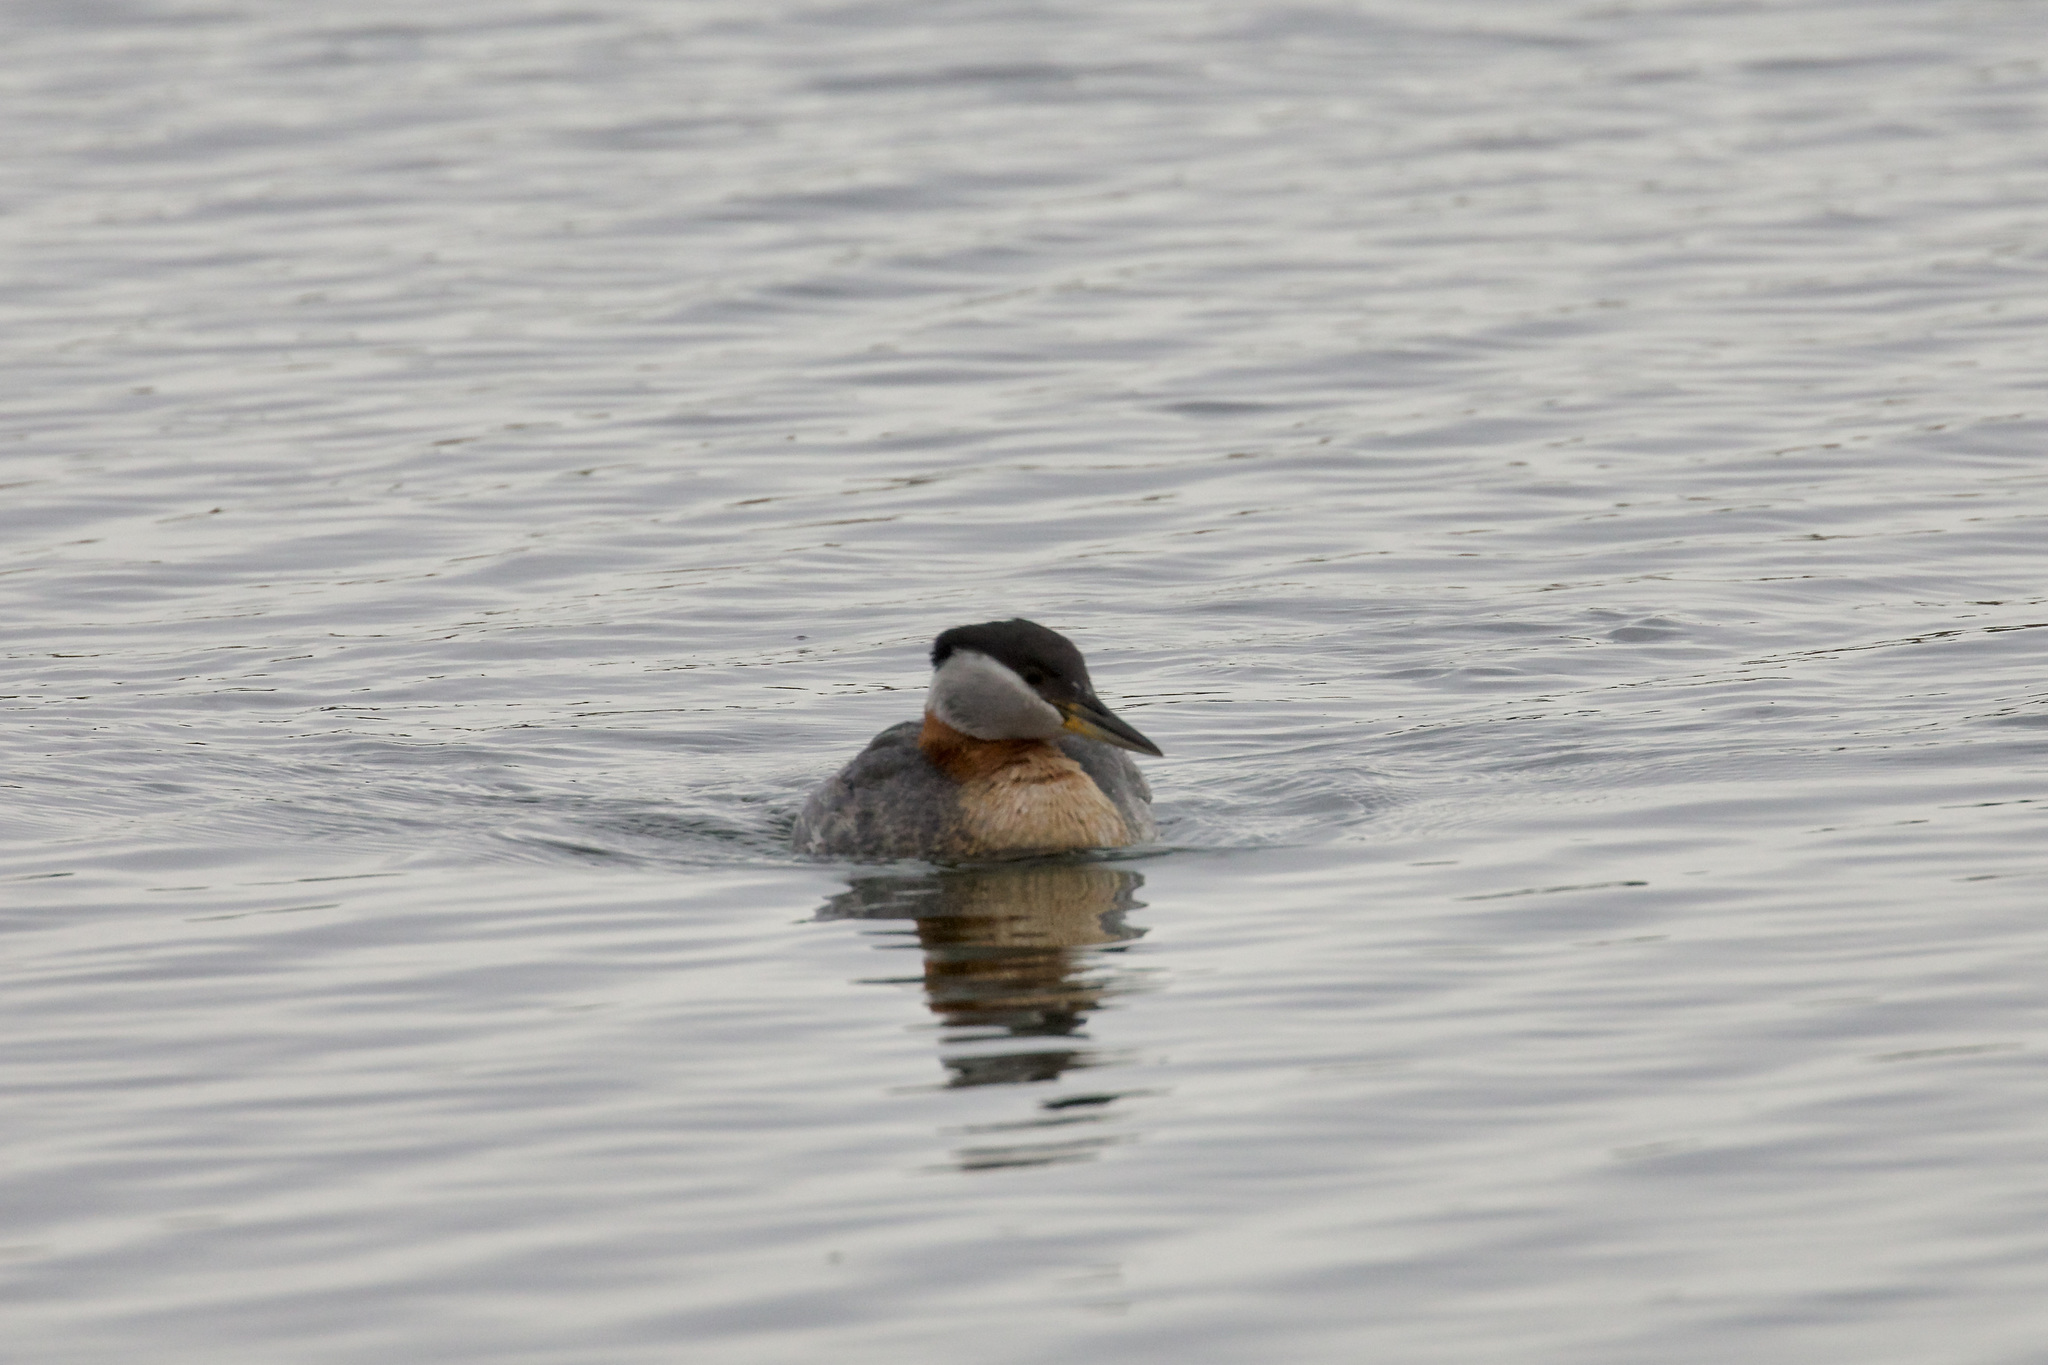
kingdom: Animalia
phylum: Chordata
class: Aves
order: Podicipediformes
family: Podicipedidae
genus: Podiceps
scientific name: Podiceps grisegena
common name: Red-necked grebe
